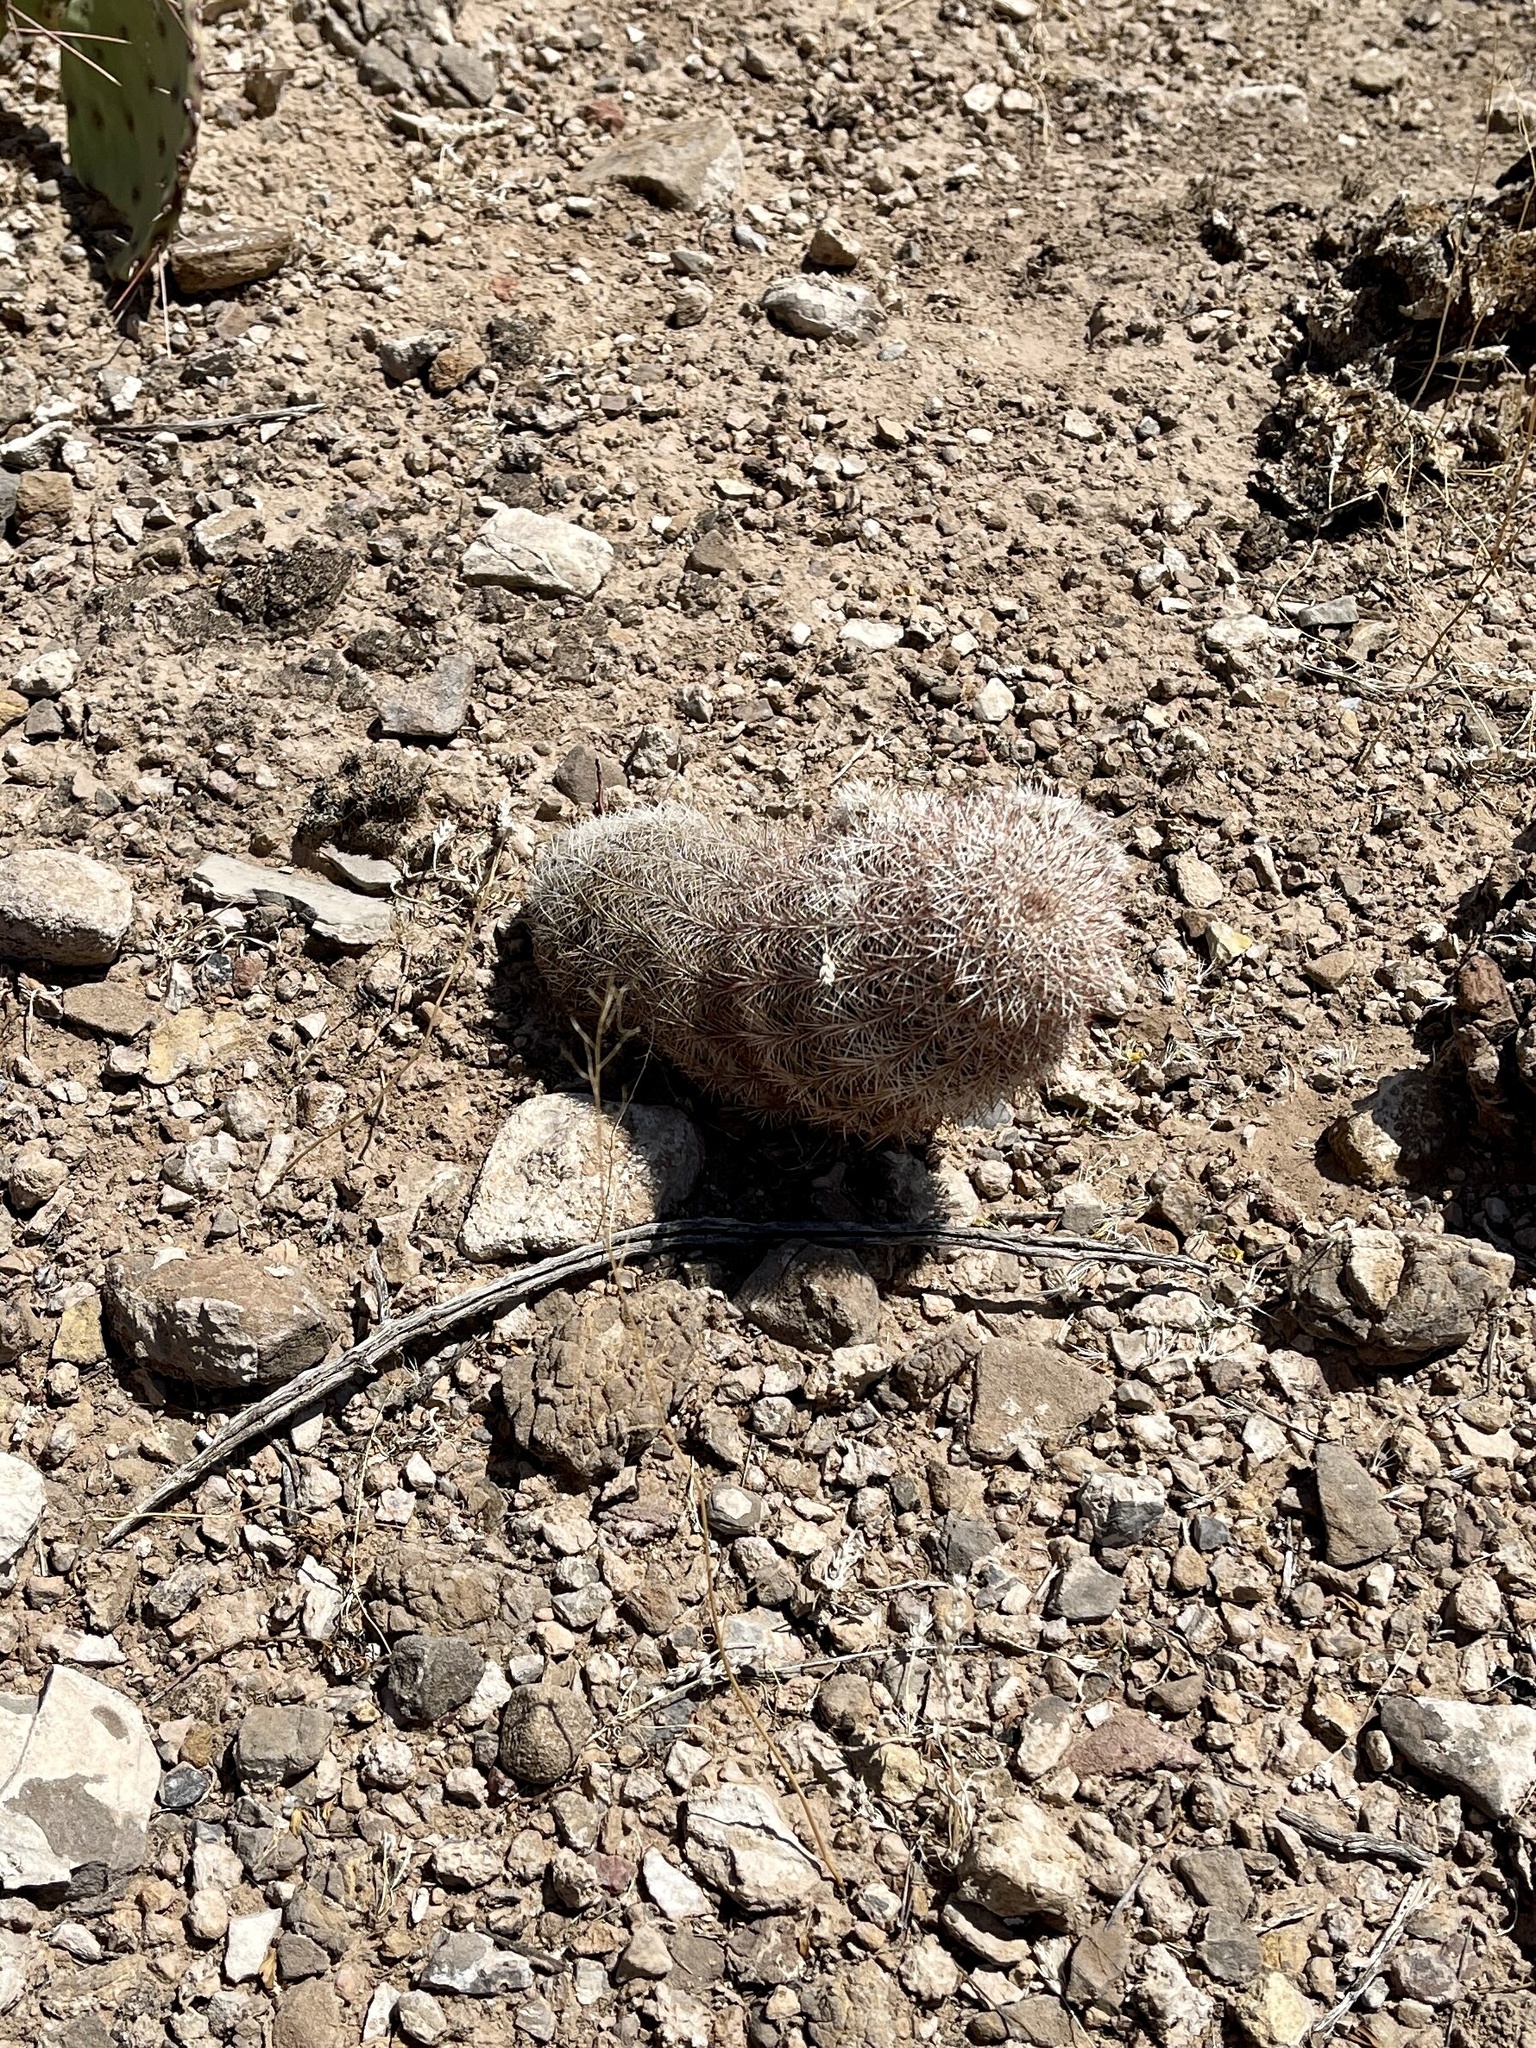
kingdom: Plantae
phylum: Tracheophyta
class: Magnoliopsida
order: Caryophyllales
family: Cactaceae
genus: Echinocereus
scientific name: Echinocereus dasyacanthus
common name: Spiny hedgehog cactus
